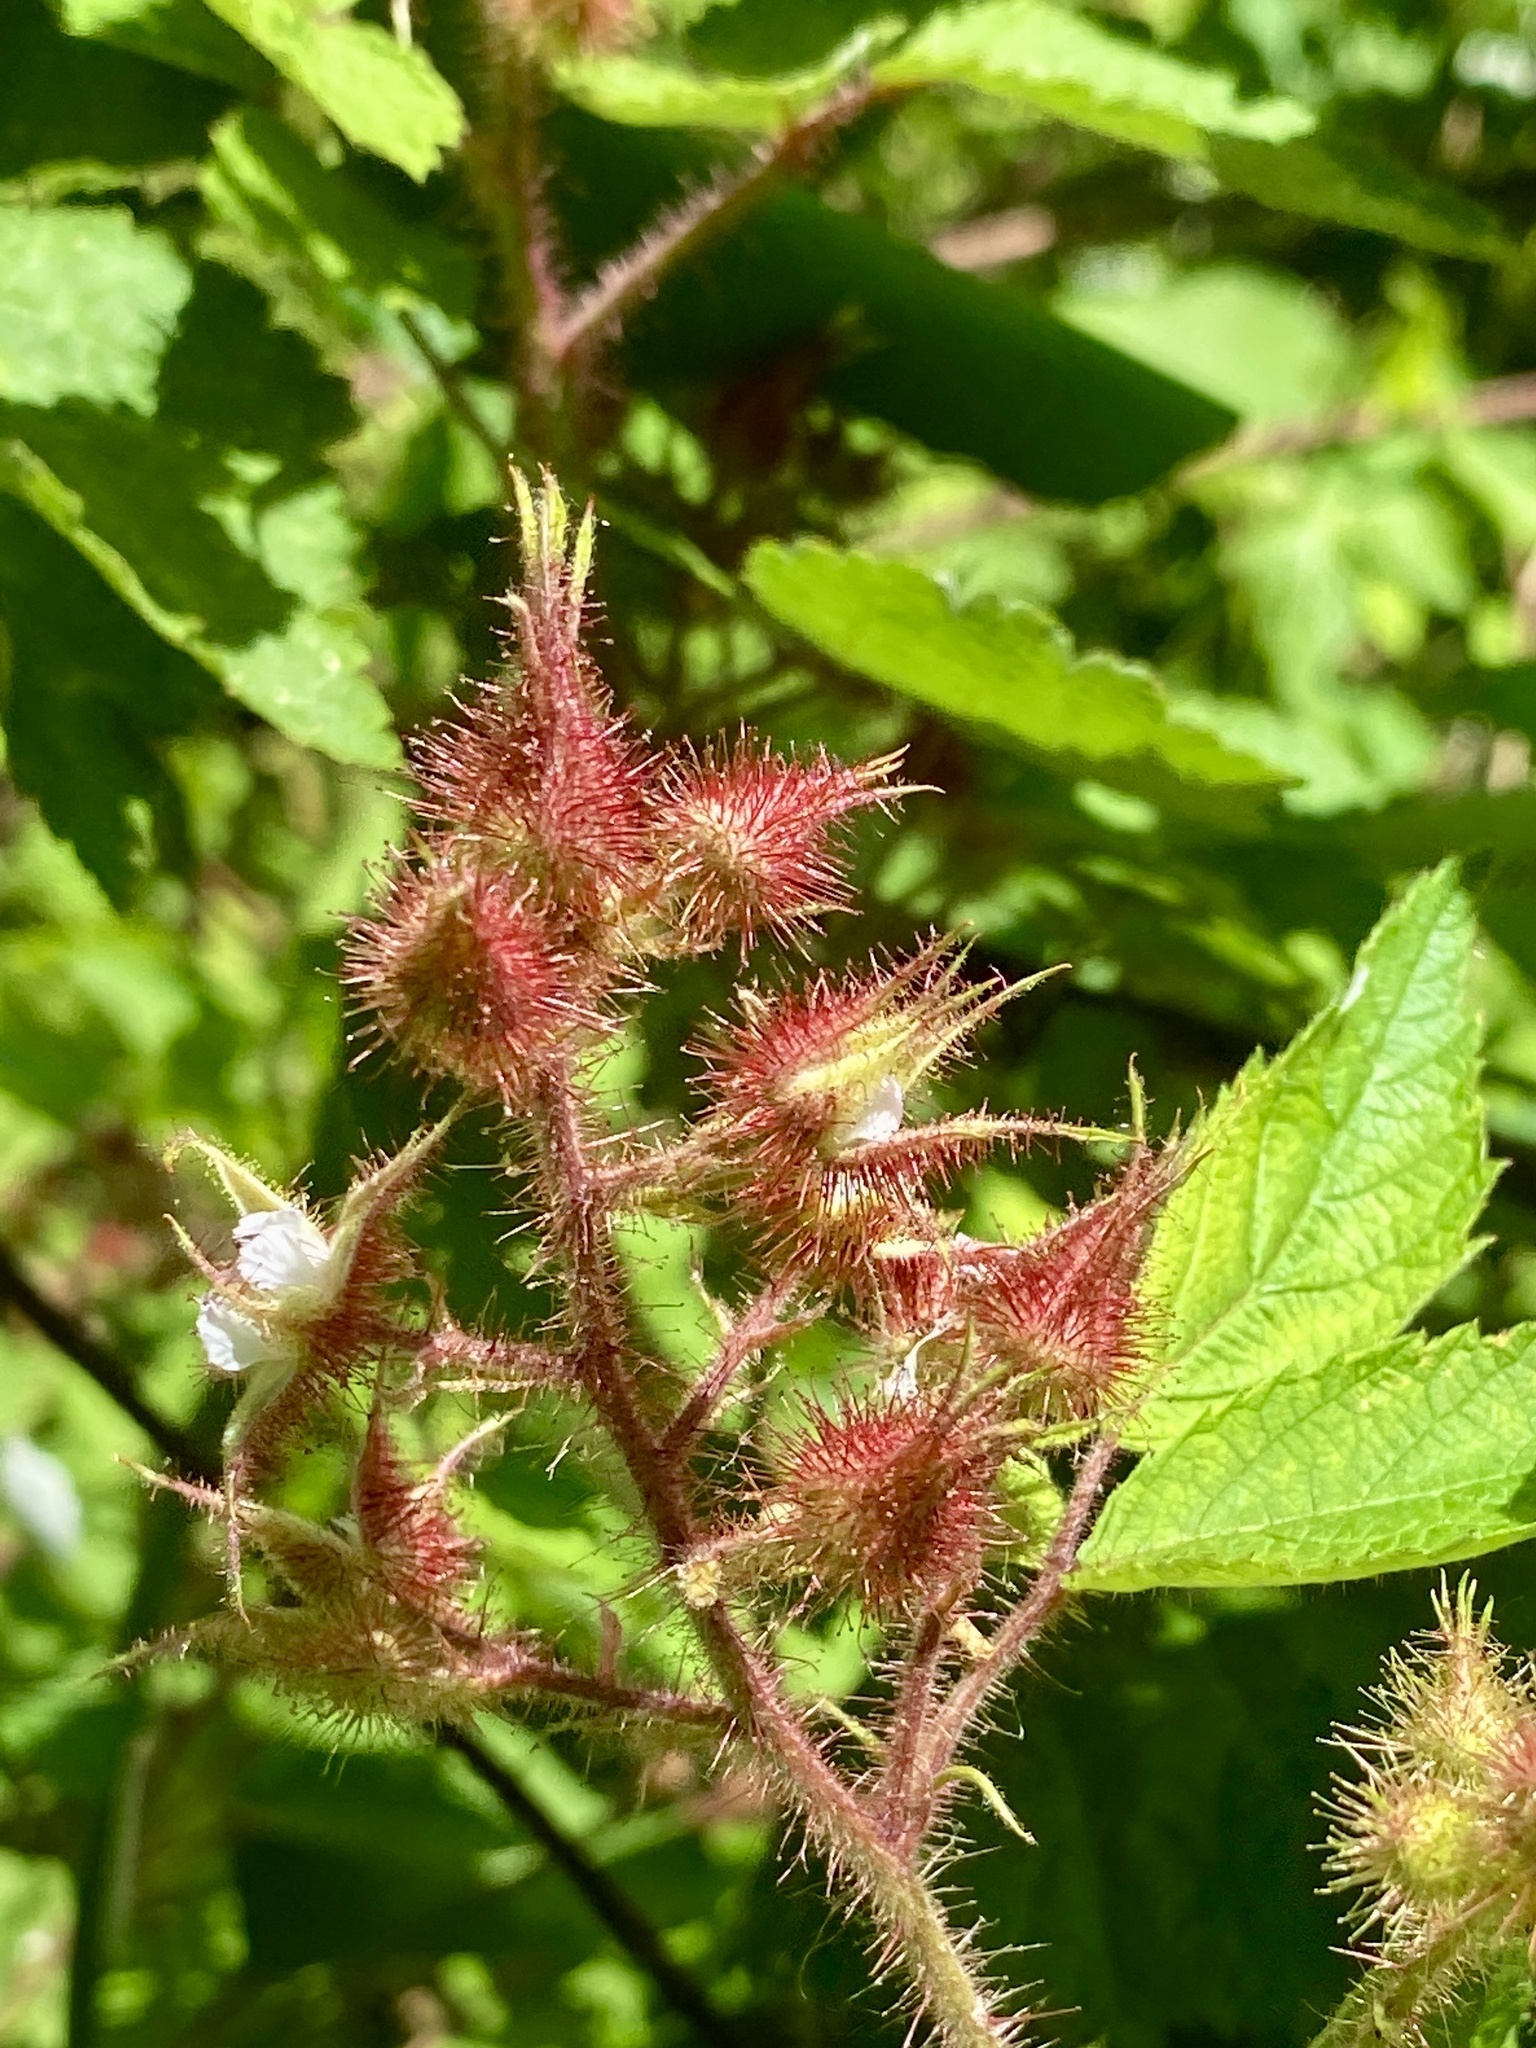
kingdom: Plantae
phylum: Tracheophyta
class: Magnoliopsida
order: Rosales
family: Rosaceae
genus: Rubus
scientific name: Rubus phoenicolasius
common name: Japanese wineberry
